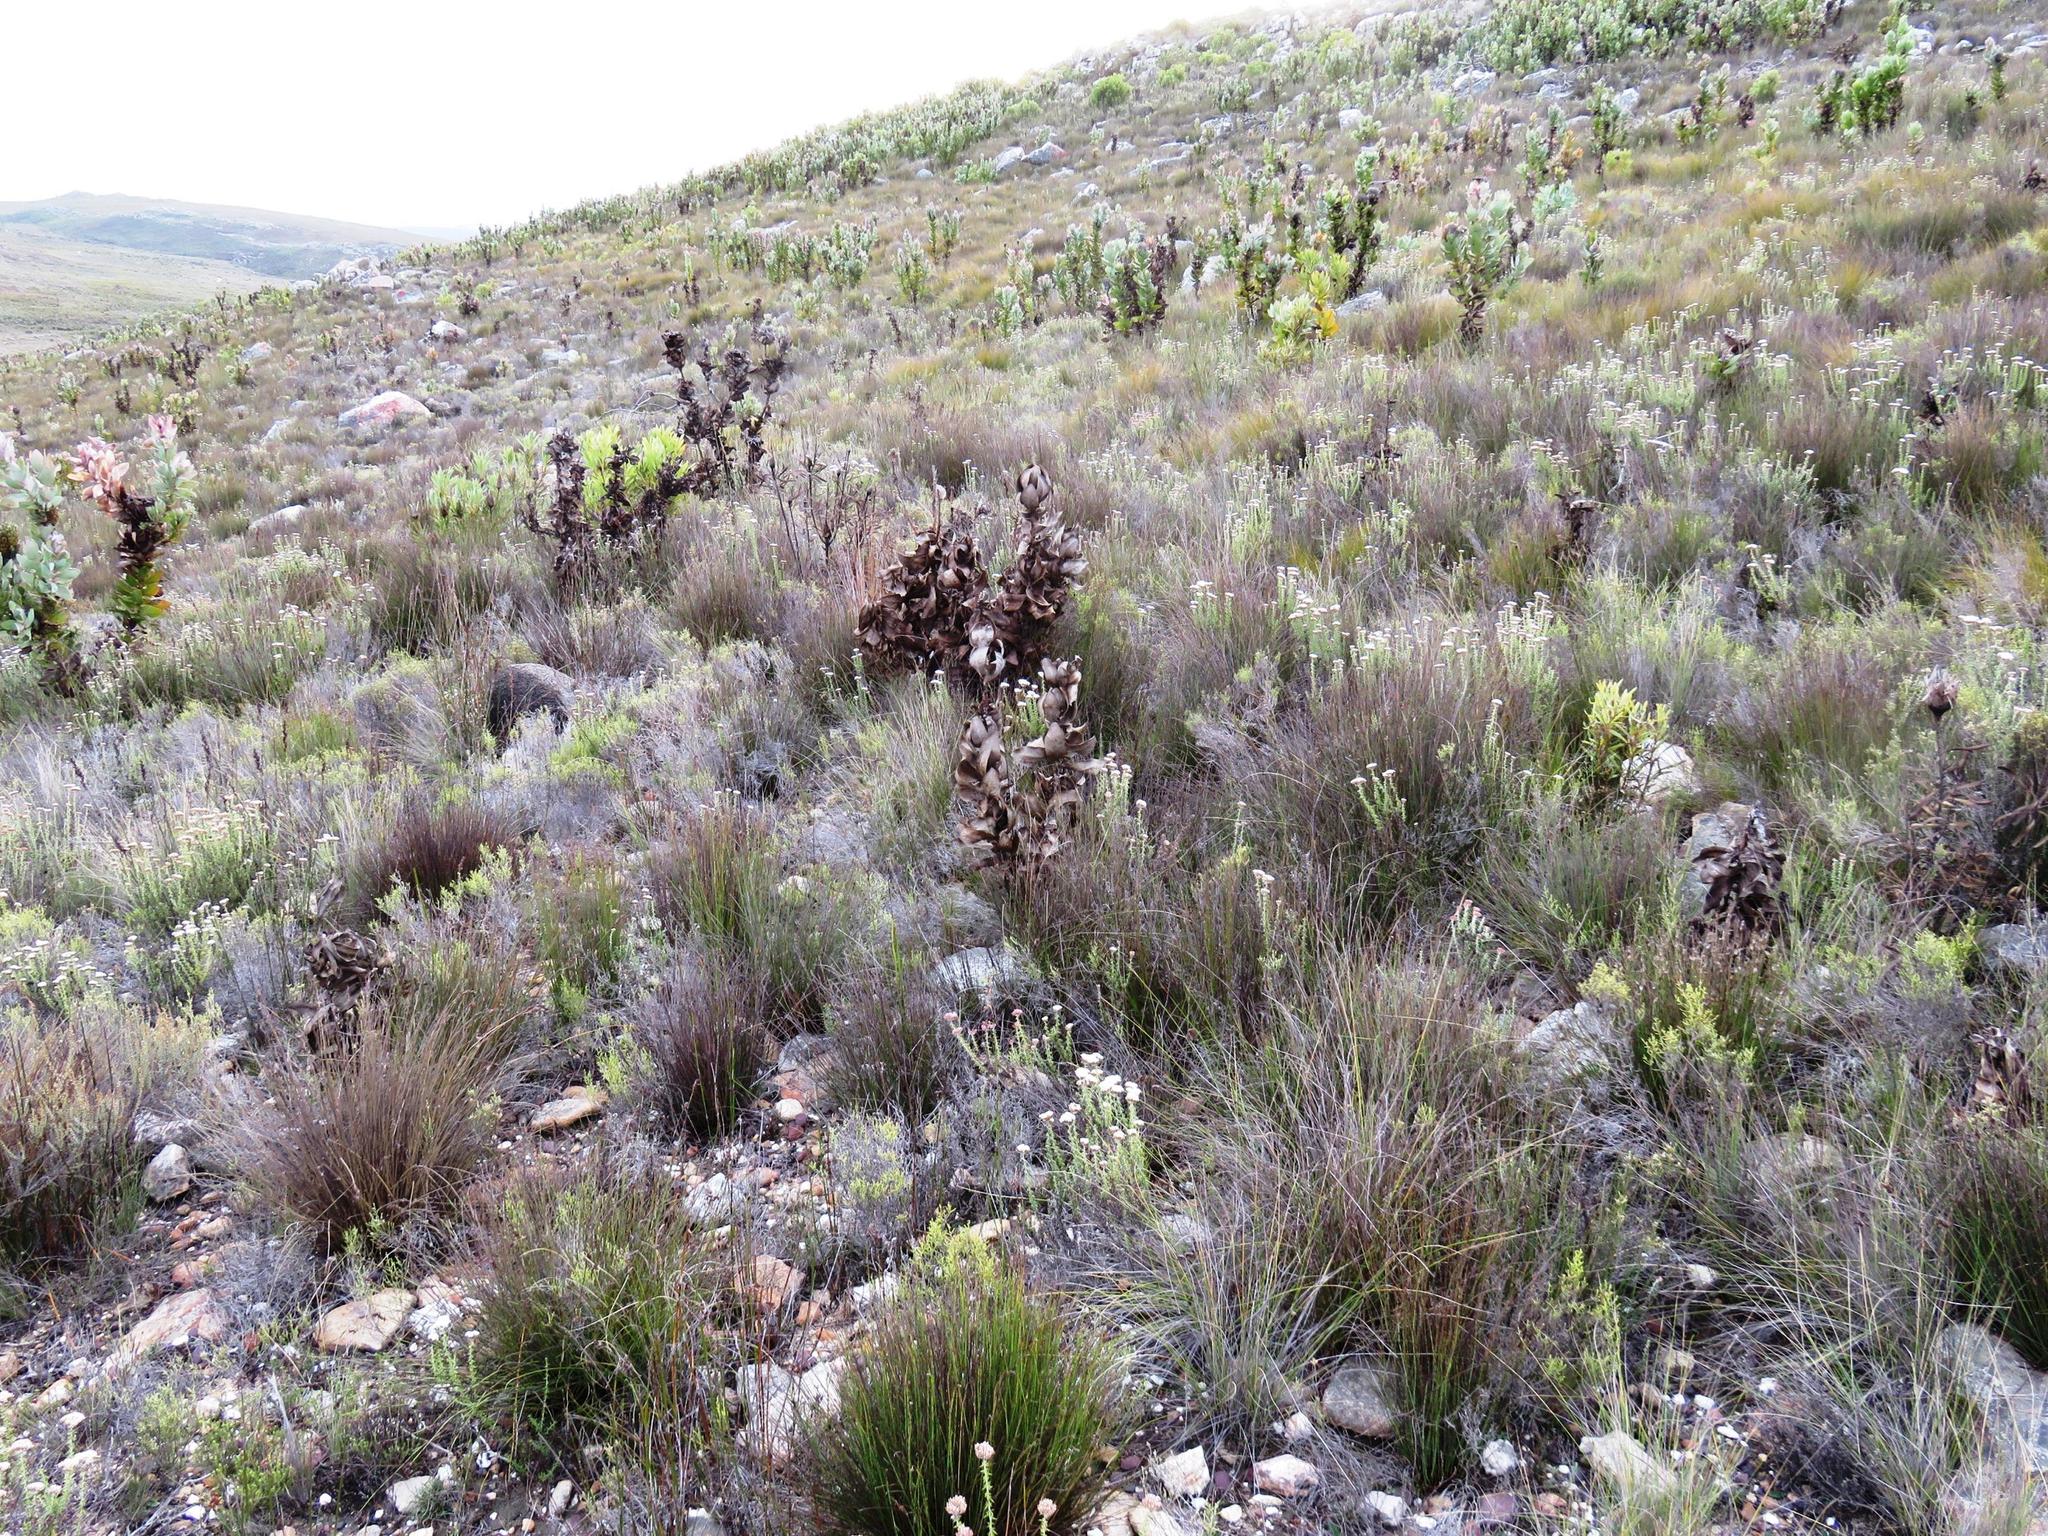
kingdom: Plantae
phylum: Tracheophyta
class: Magnoliopsida
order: Proteales
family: Proteaceae
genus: Protea
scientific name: Protea eximia
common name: Broad-leaved sugarbush
